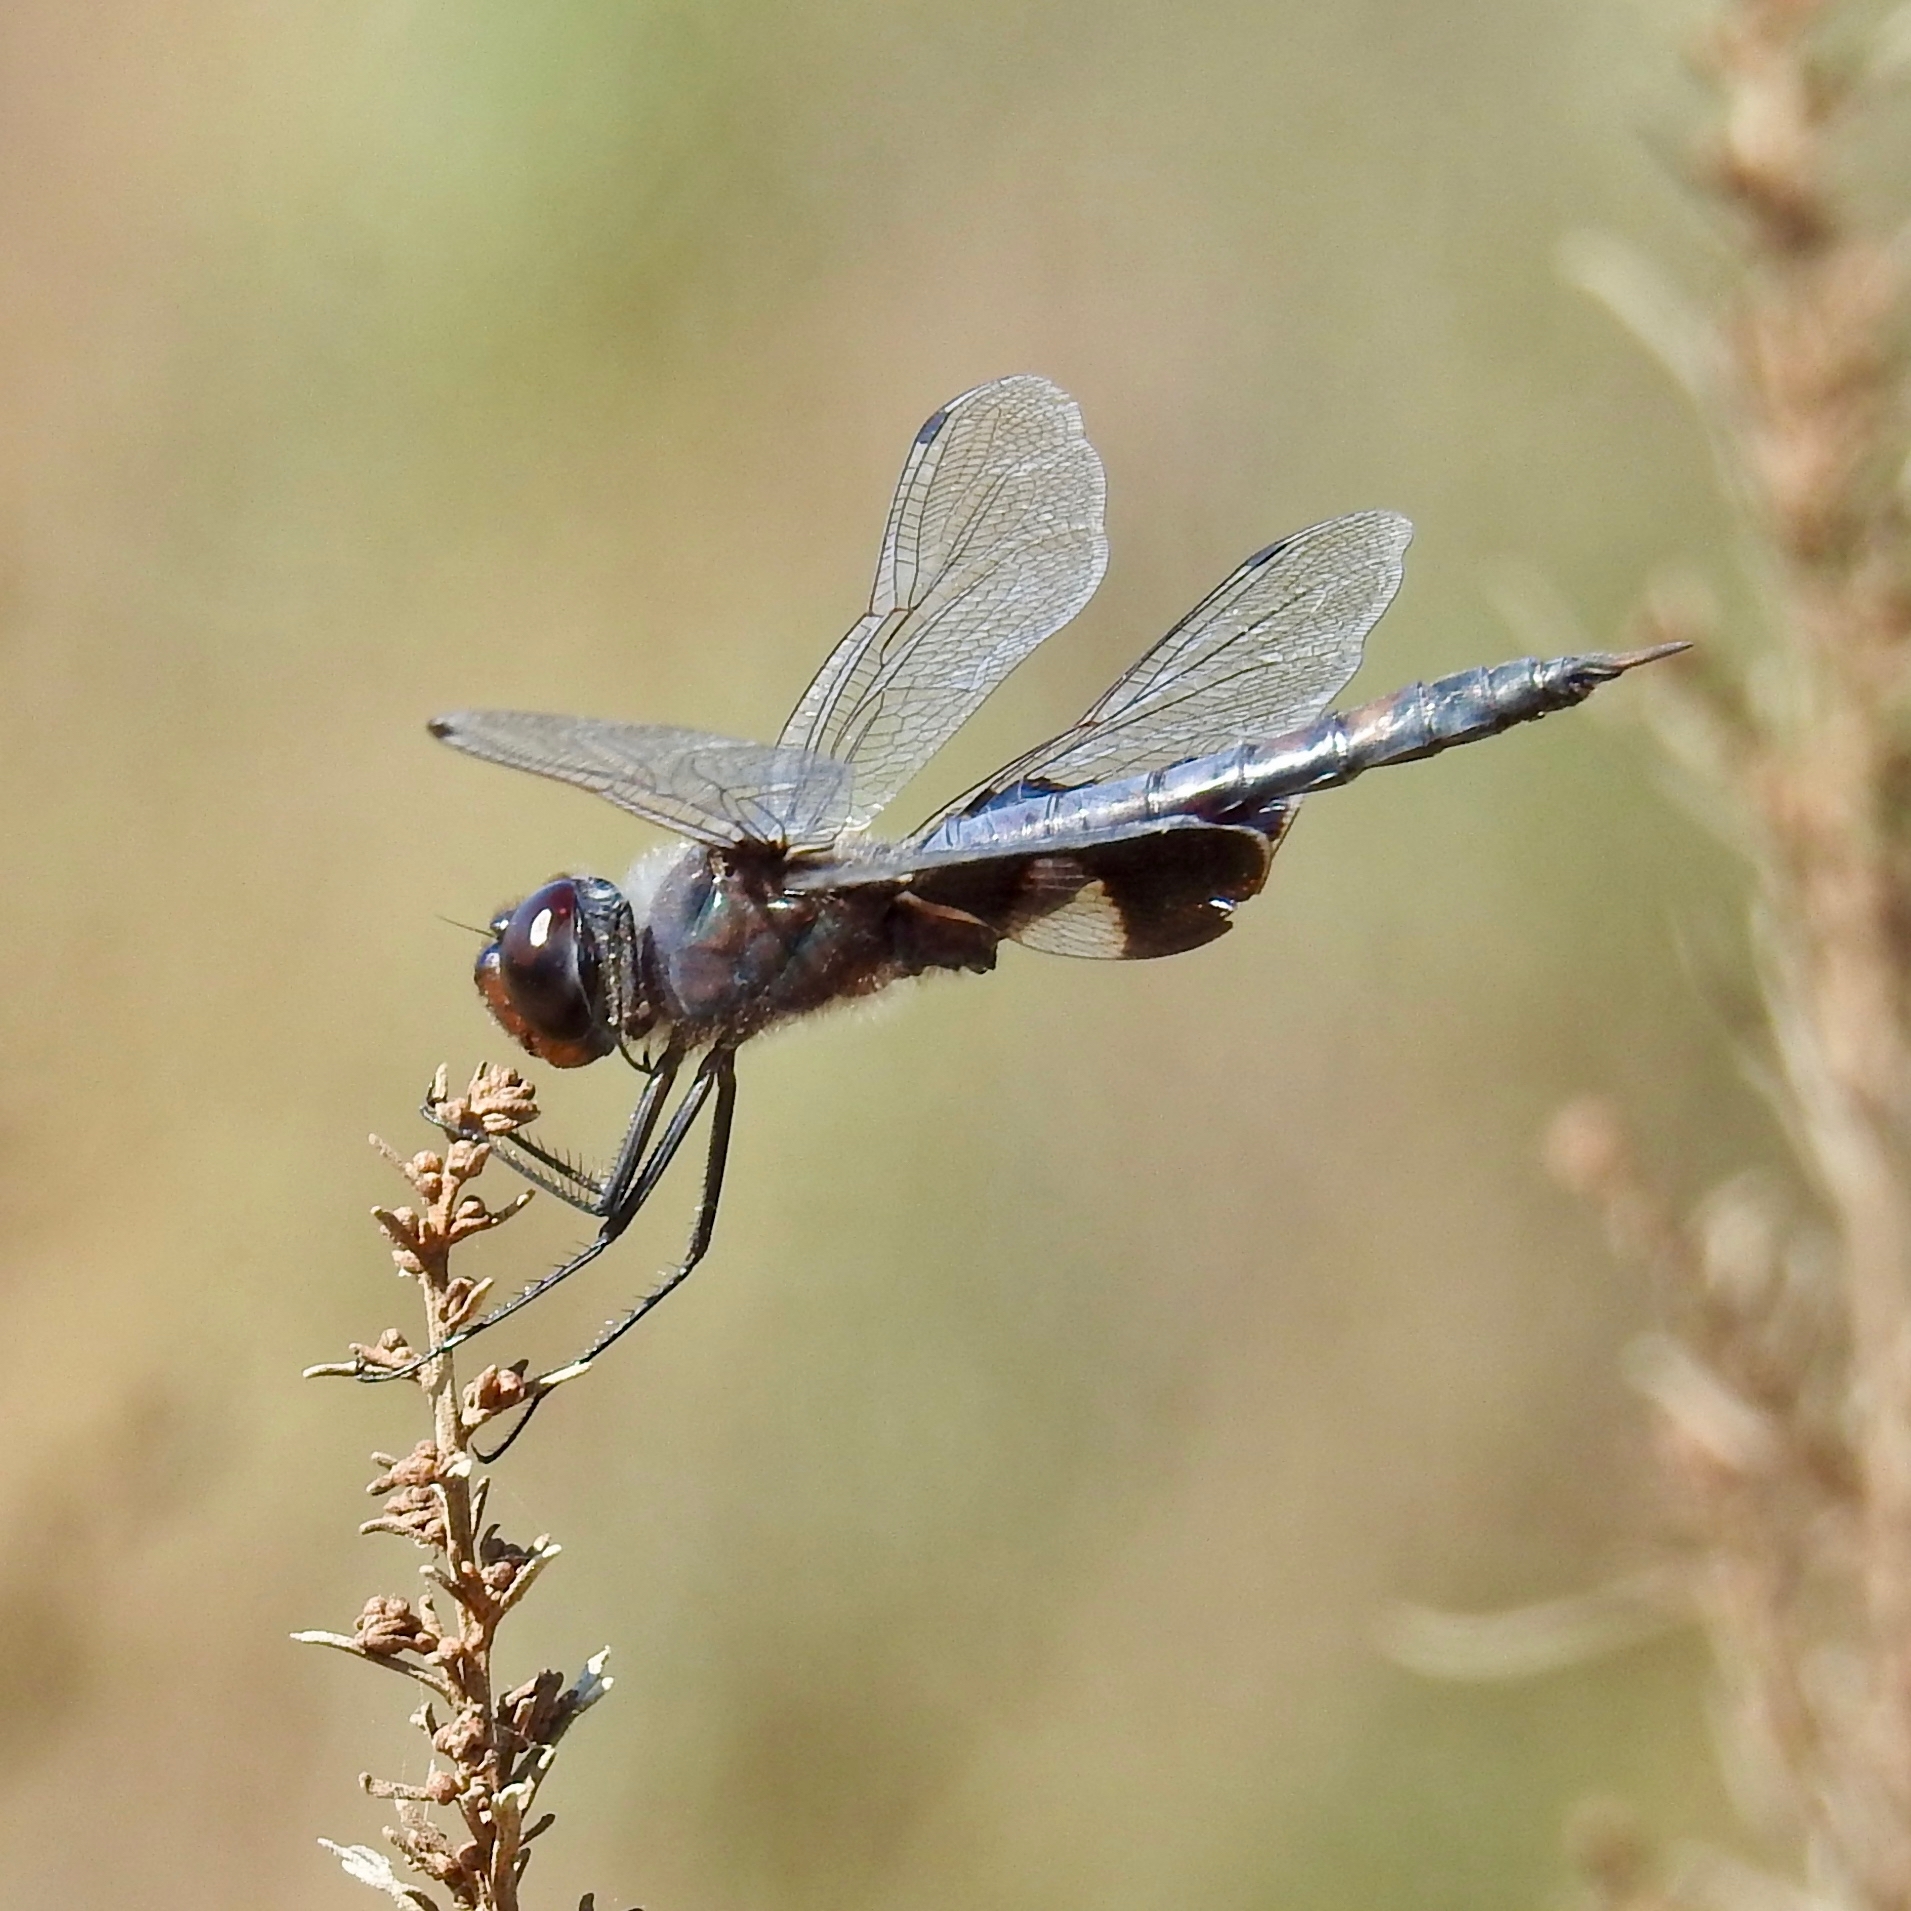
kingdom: Animalia
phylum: Arthropoda
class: Insecta
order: Odonata
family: Libellulidae
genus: Tramea
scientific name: Tramea lacerata
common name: Black saddlebags
